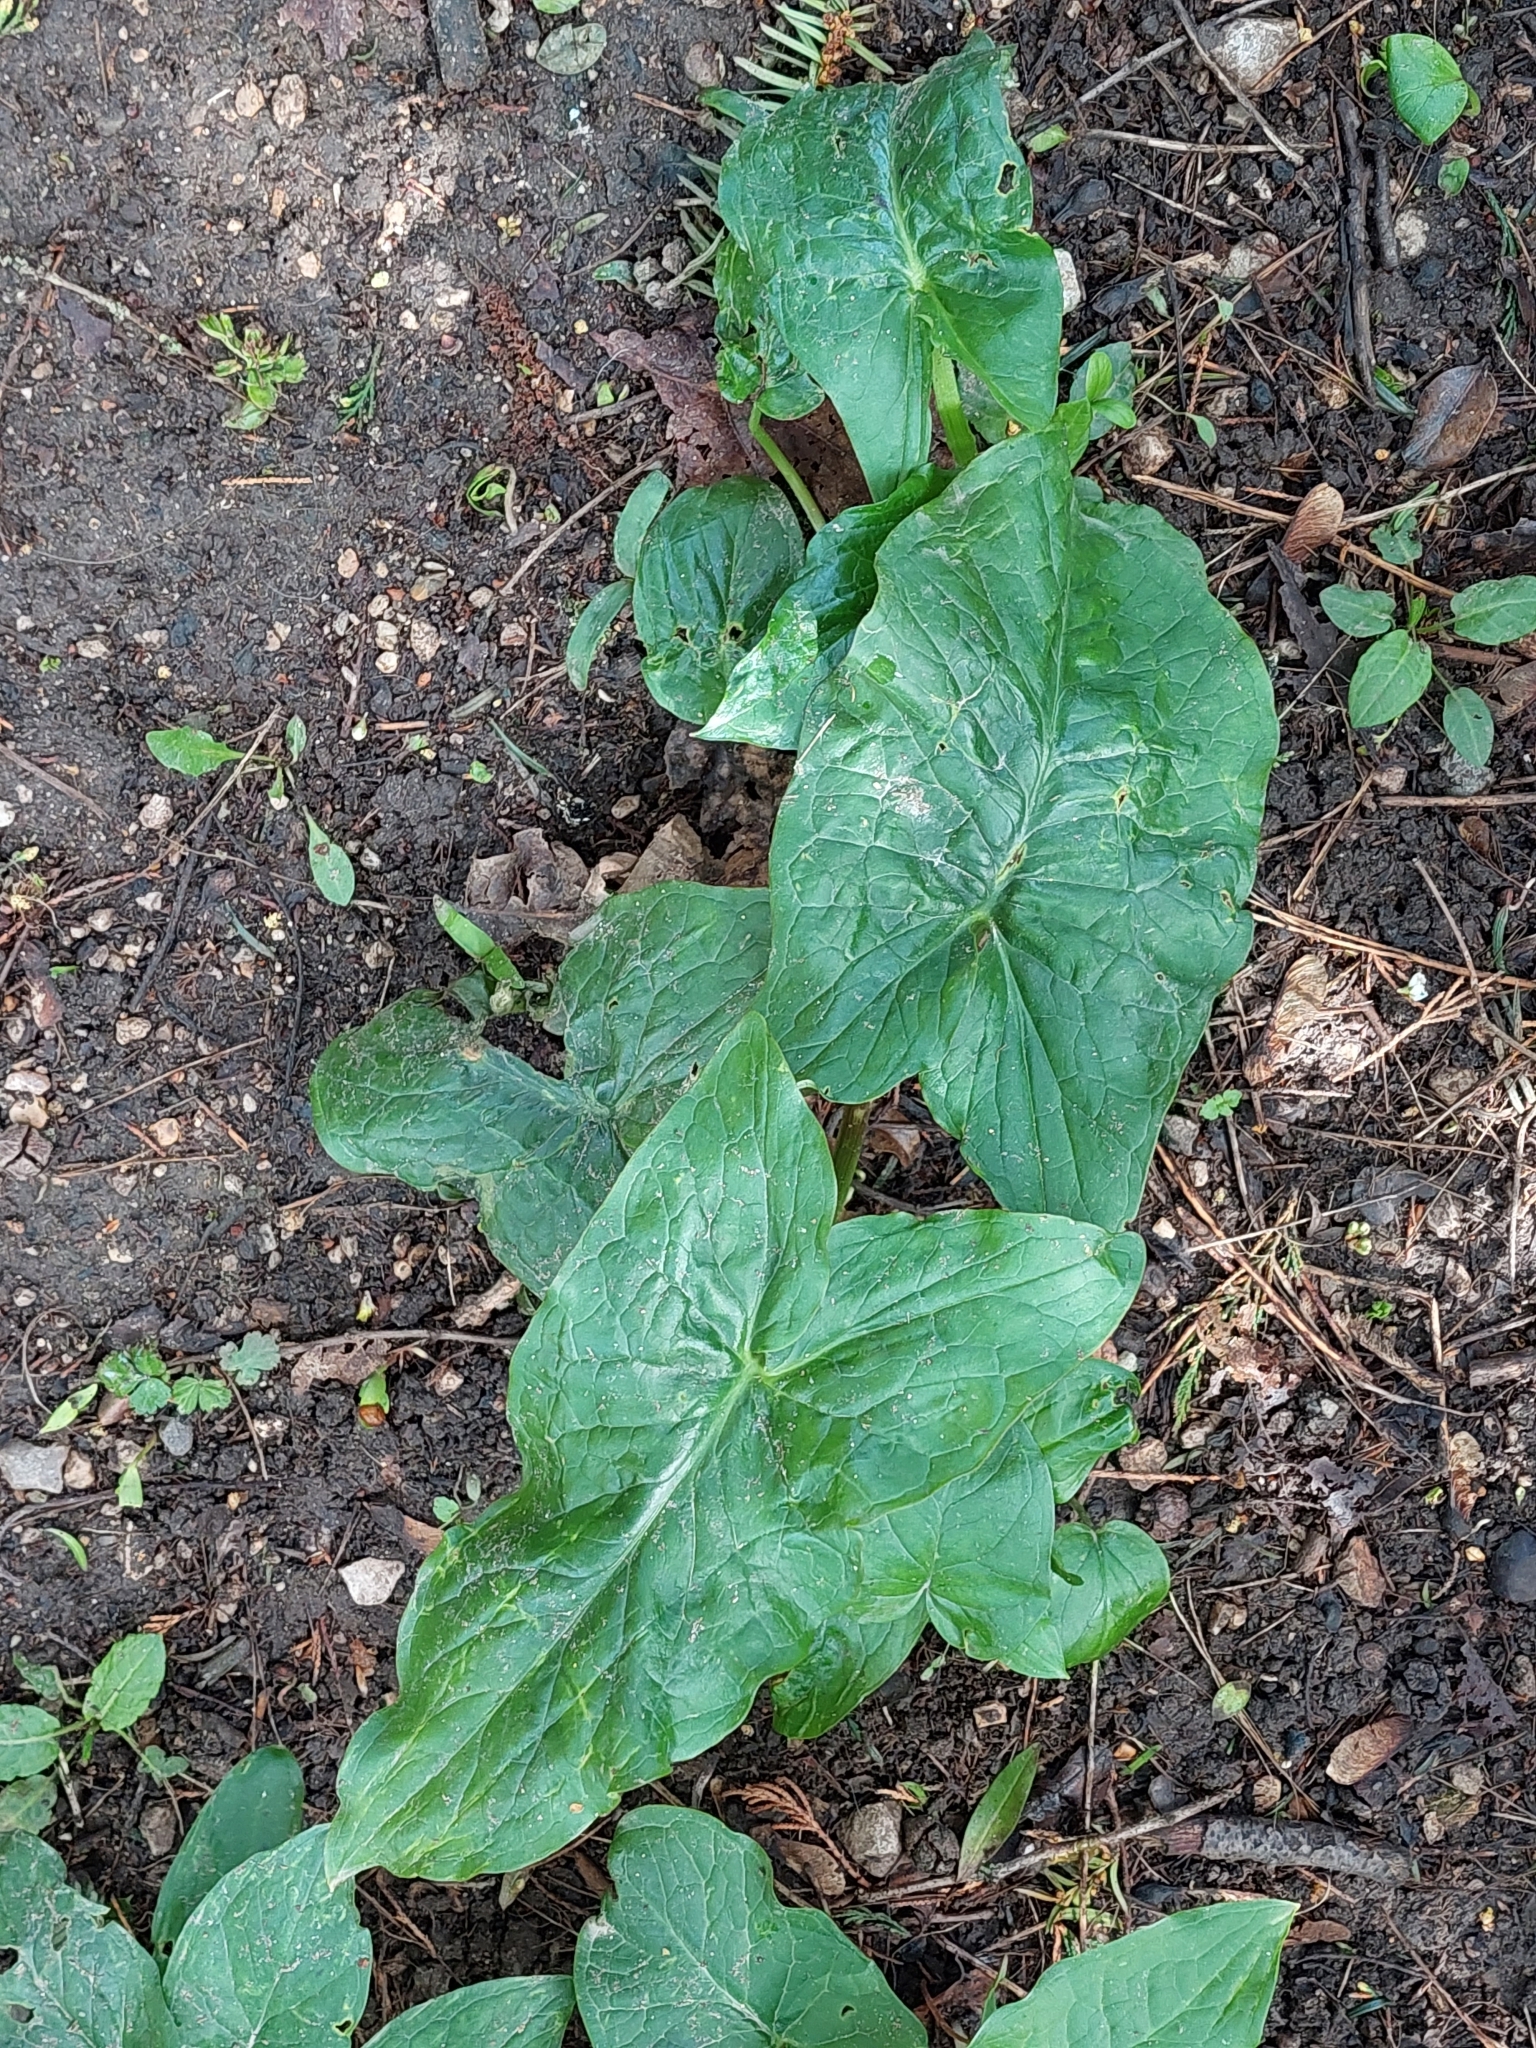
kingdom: Plantae
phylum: Tracheophyta
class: Liliopsida
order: Alismatales
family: Araceae
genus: Arum
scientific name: Arum maculatum
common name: Lords-and-ladies
